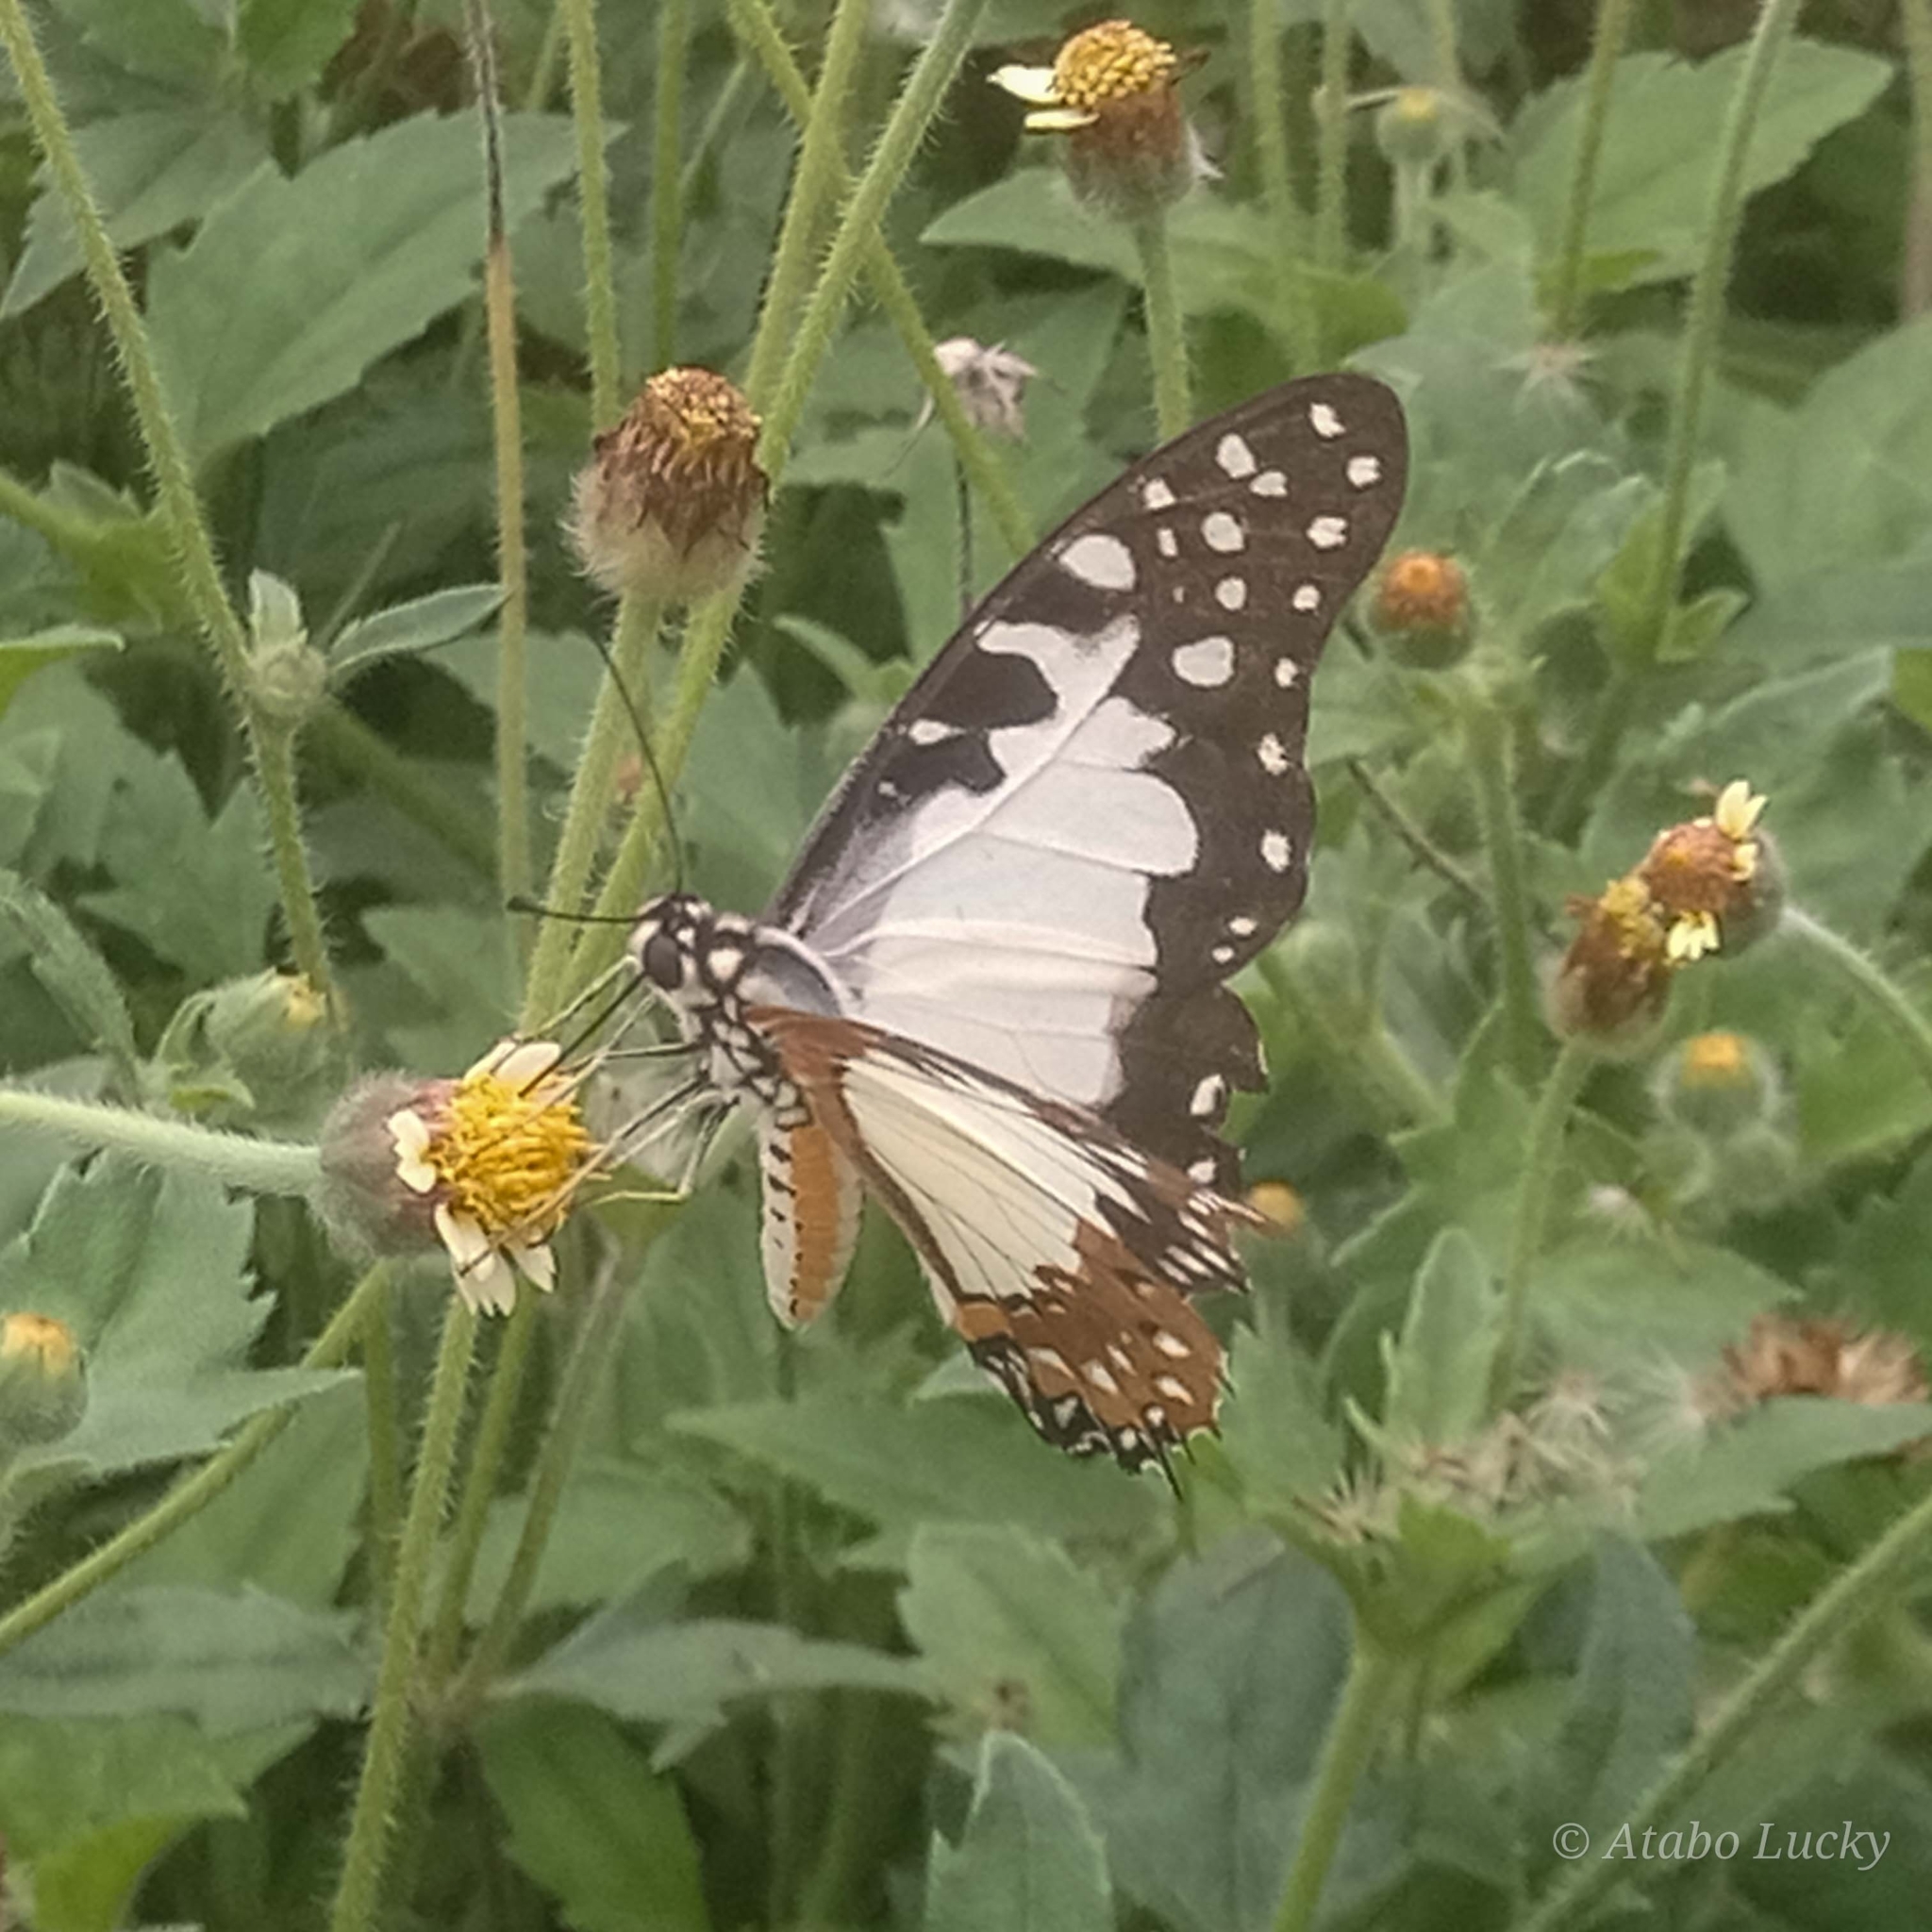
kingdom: Animalia
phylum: Arthropoda
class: Insecta
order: Lepidoptera
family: Papilionidae
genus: Graphium
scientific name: Graphium angolanus
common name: Angola white-lady swordtail
